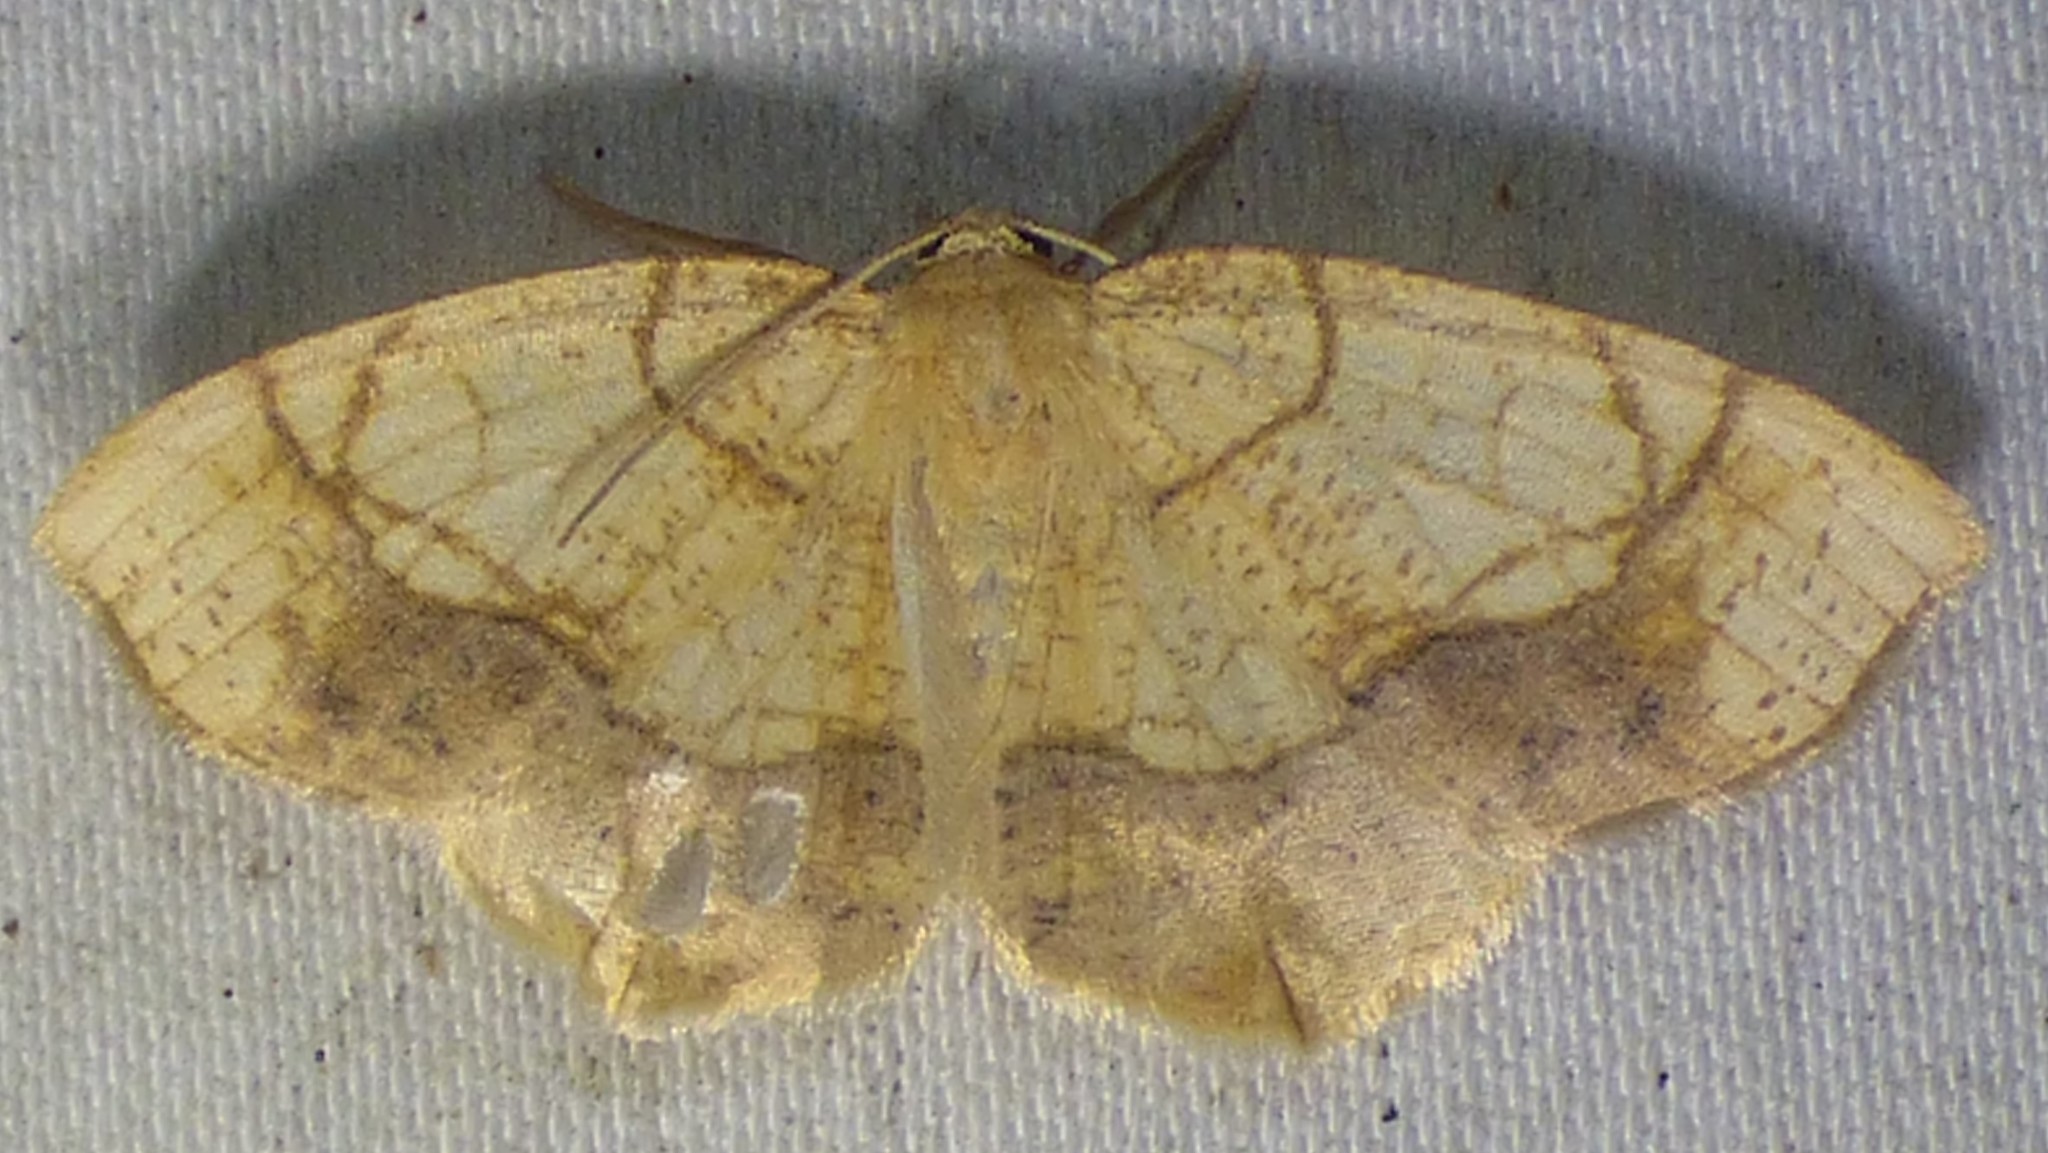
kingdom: Animalia
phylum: Arthropoda
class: Insecta
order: Lepidoptera
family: Geometridae
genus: Nematocampa
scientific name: Nematocampa resistaria
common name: Horned spanworm moth
